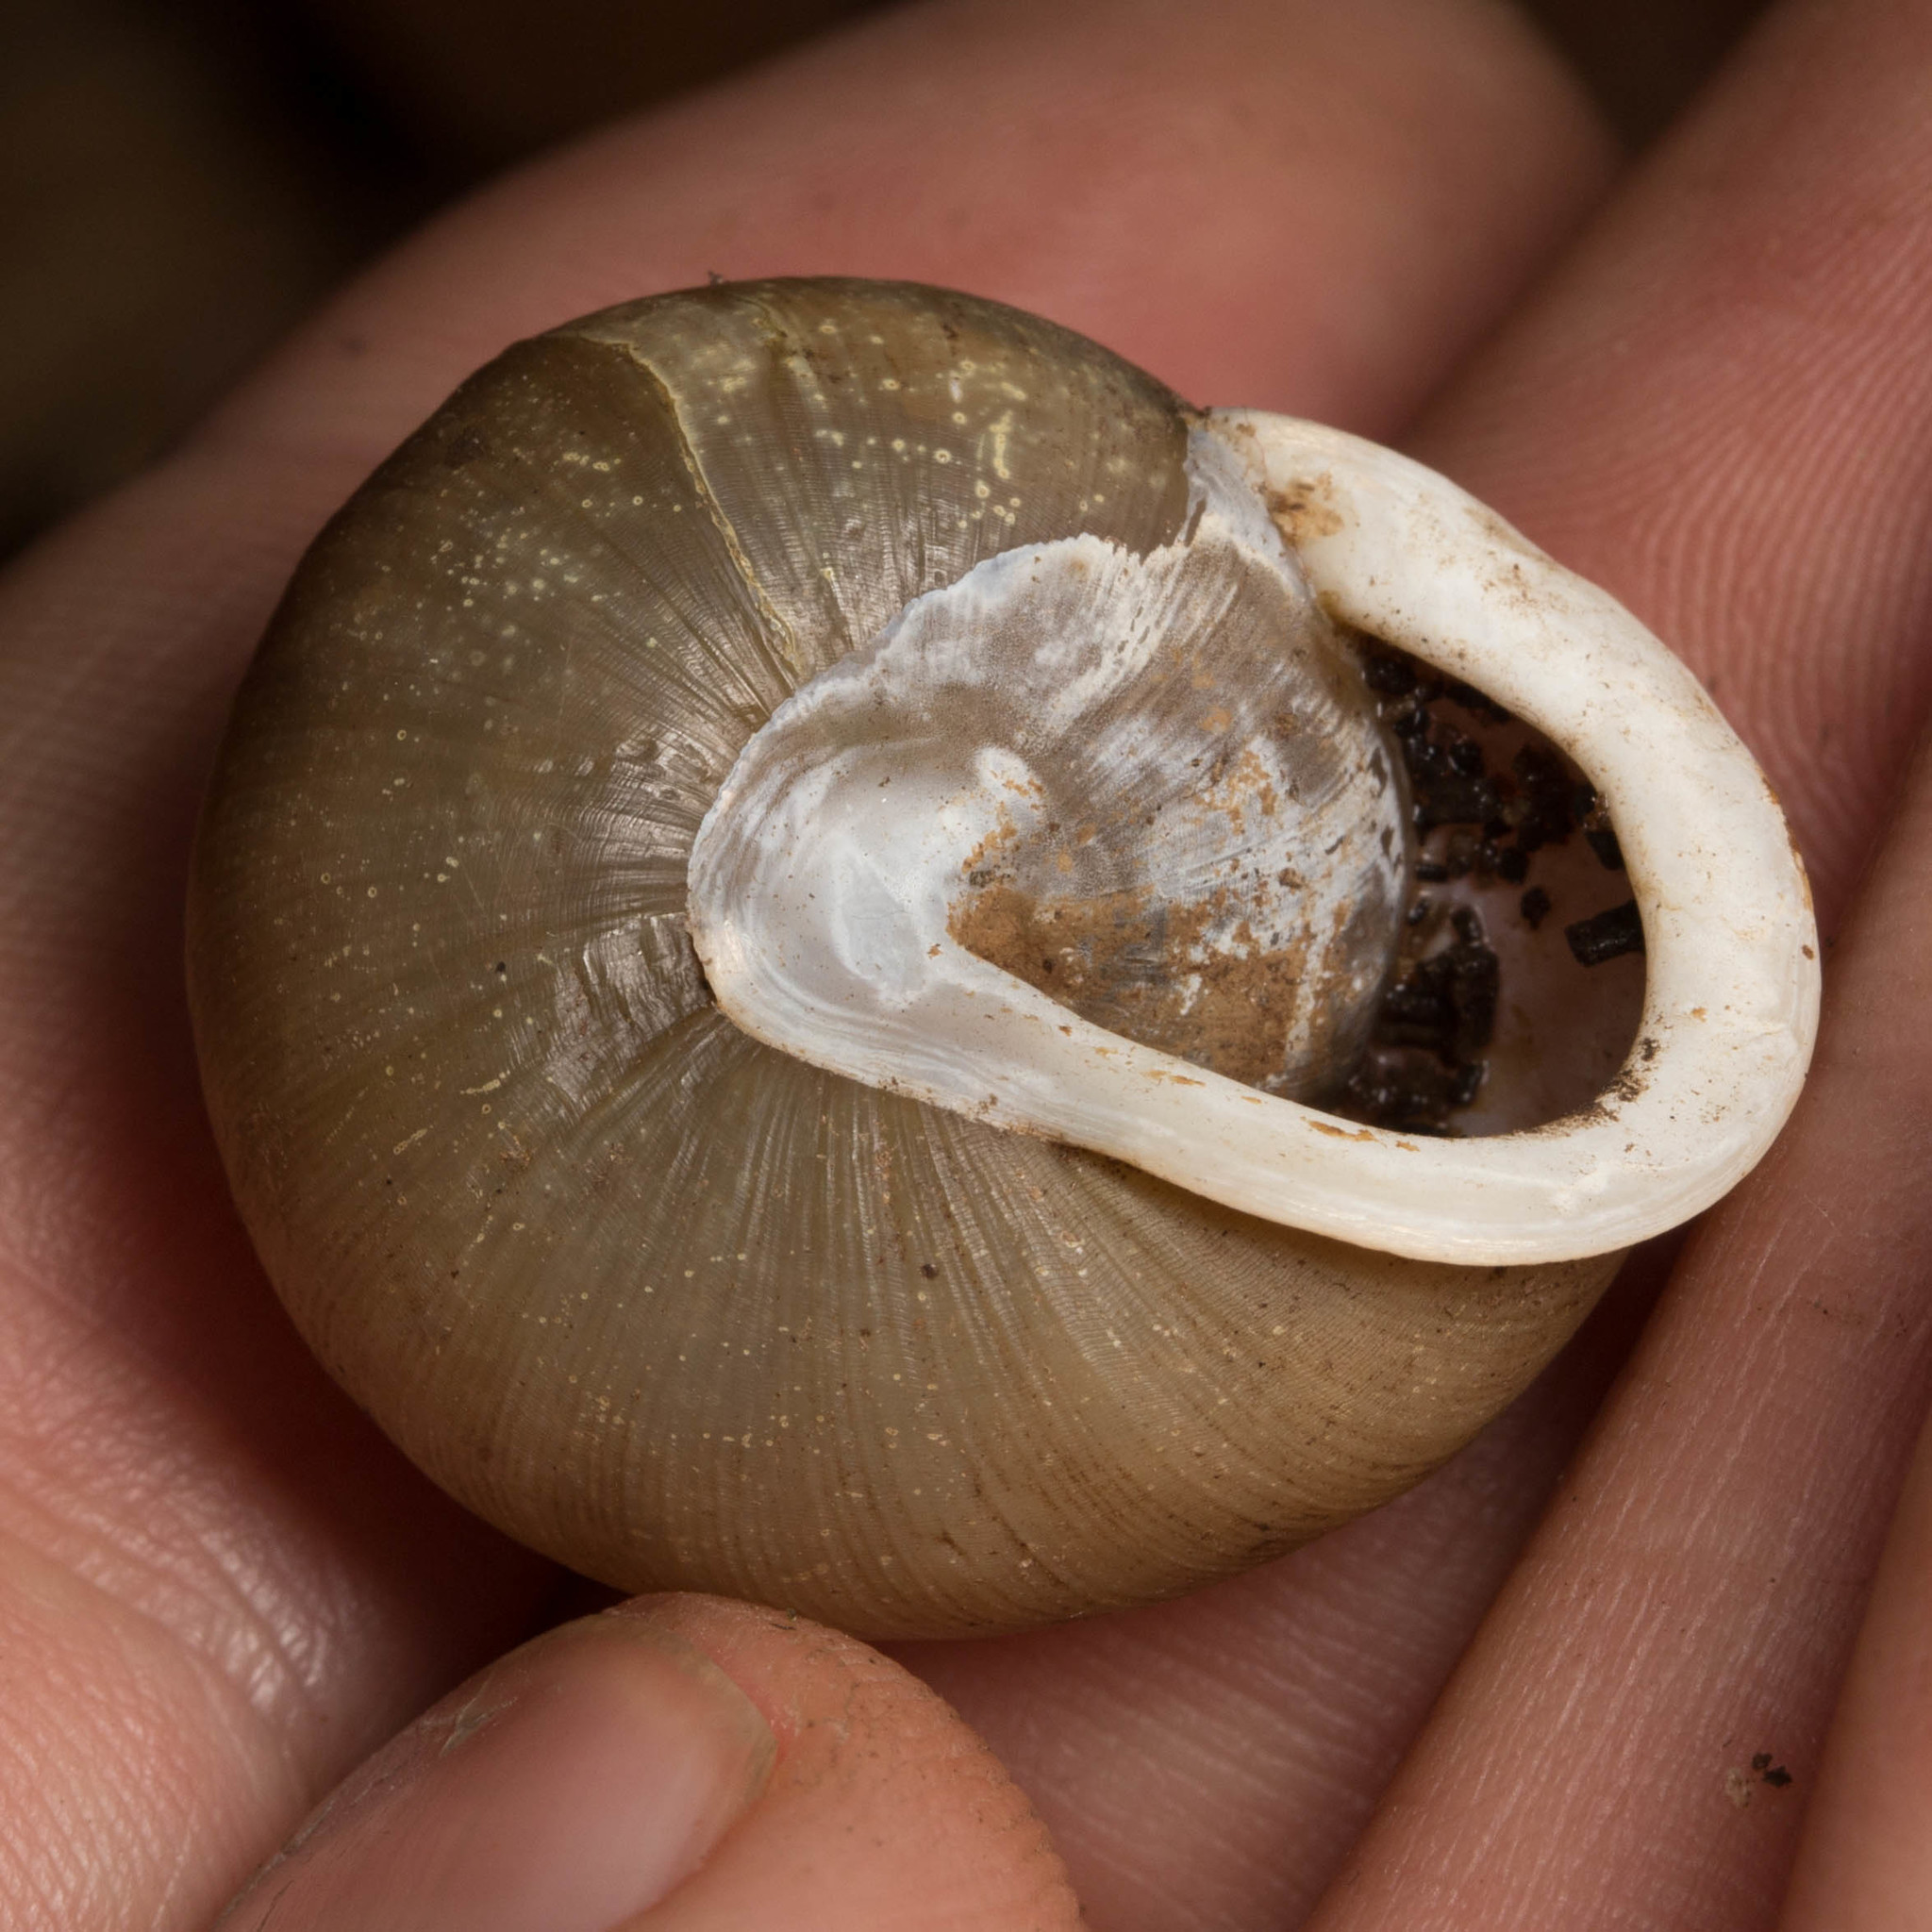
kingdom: Animalia
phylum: Mollusca
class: Gastropoda
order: Stylommatophora
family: Polygyridae
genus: Neohelix
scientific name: Neohelix albolabris
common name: Eastern whitelip
